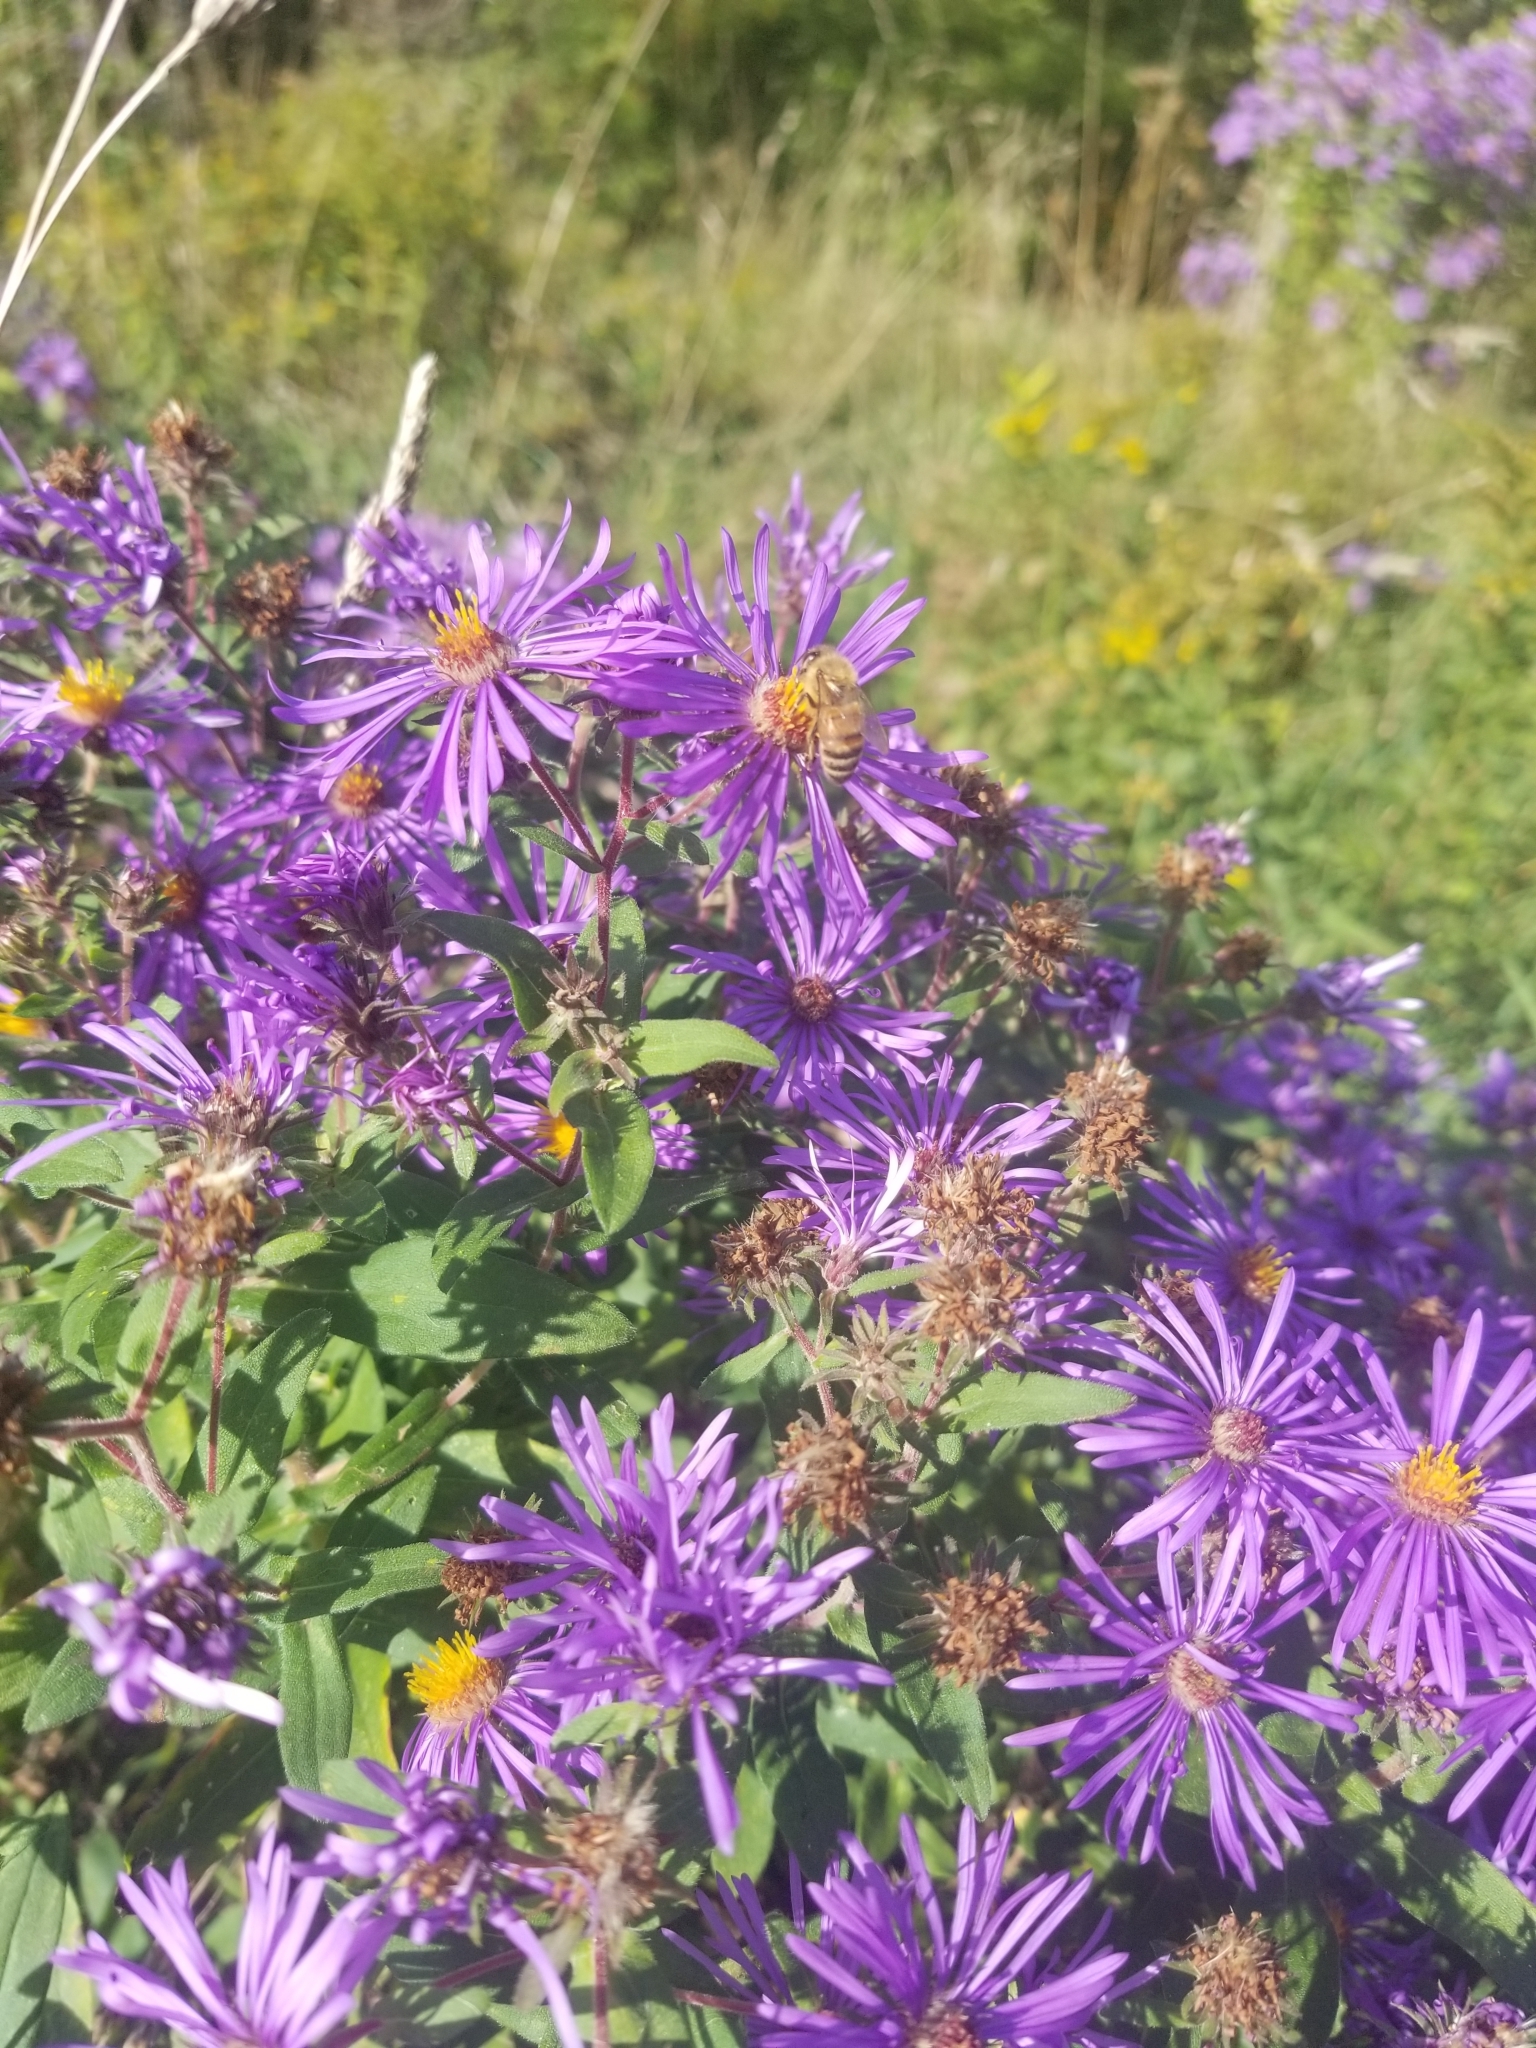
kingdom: Animalia
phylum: Arthropoda
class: Insecta
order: Hymenoptera
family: Apidae
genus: Apis
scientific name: Apis mellifera
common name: Honey bee
